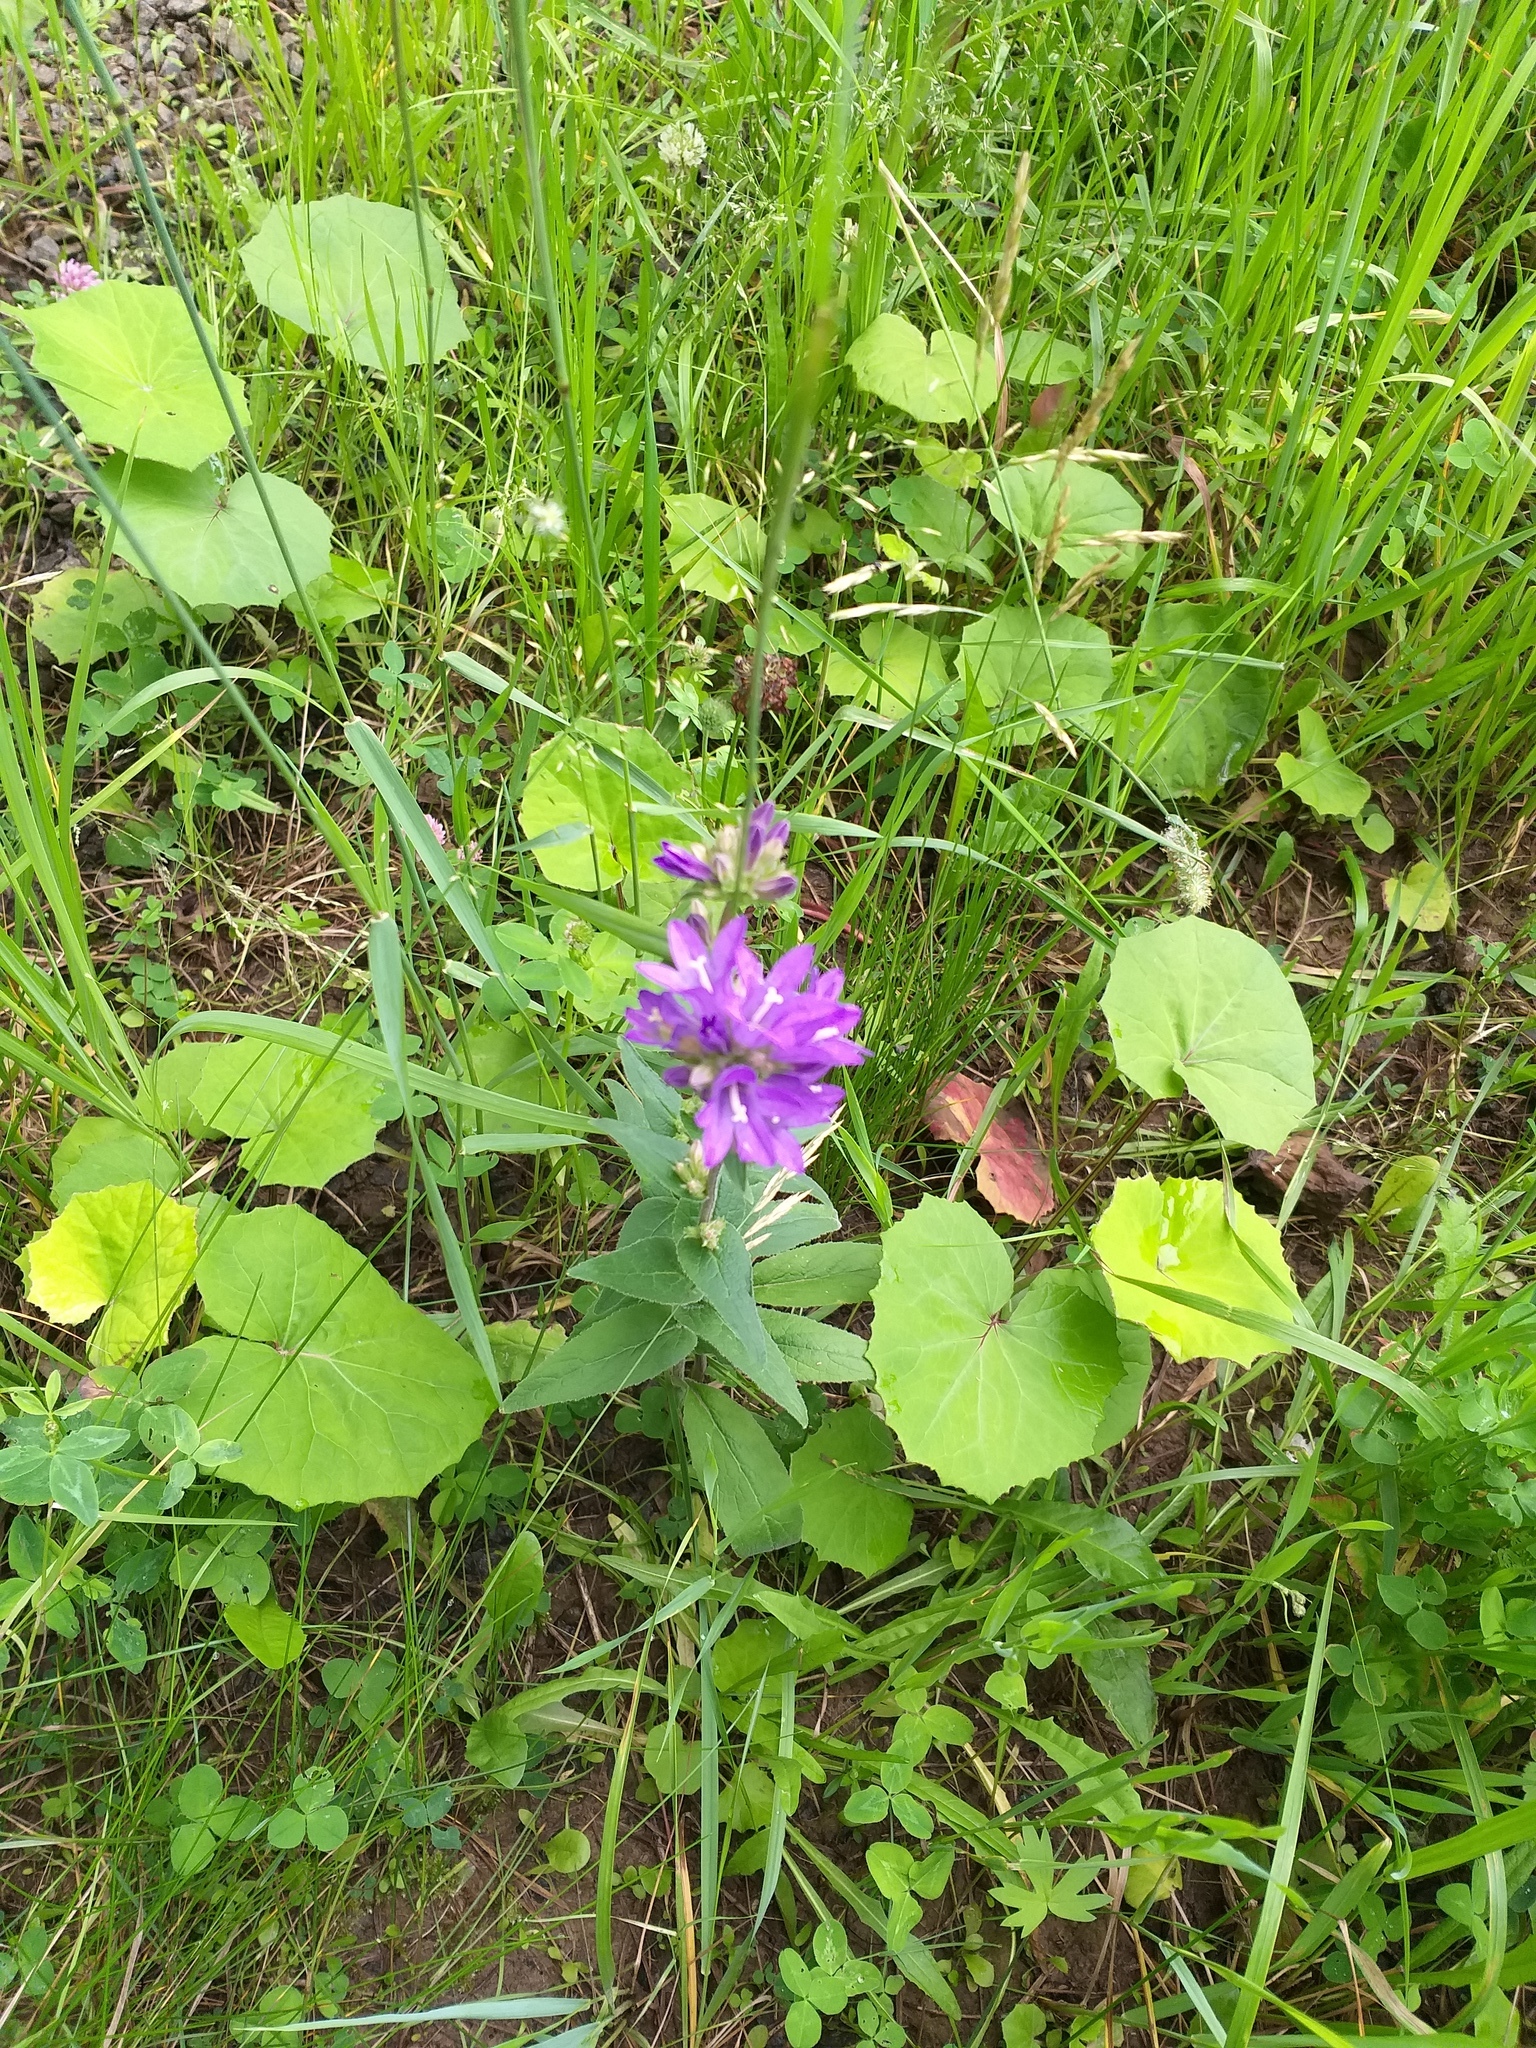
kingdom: Plantae
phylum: Tracheophyta
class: Magnoliopsida
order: Asterales
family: Campanulaceae
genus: Campanula
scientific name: Campanula glomerata
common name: Clustered bellflower
